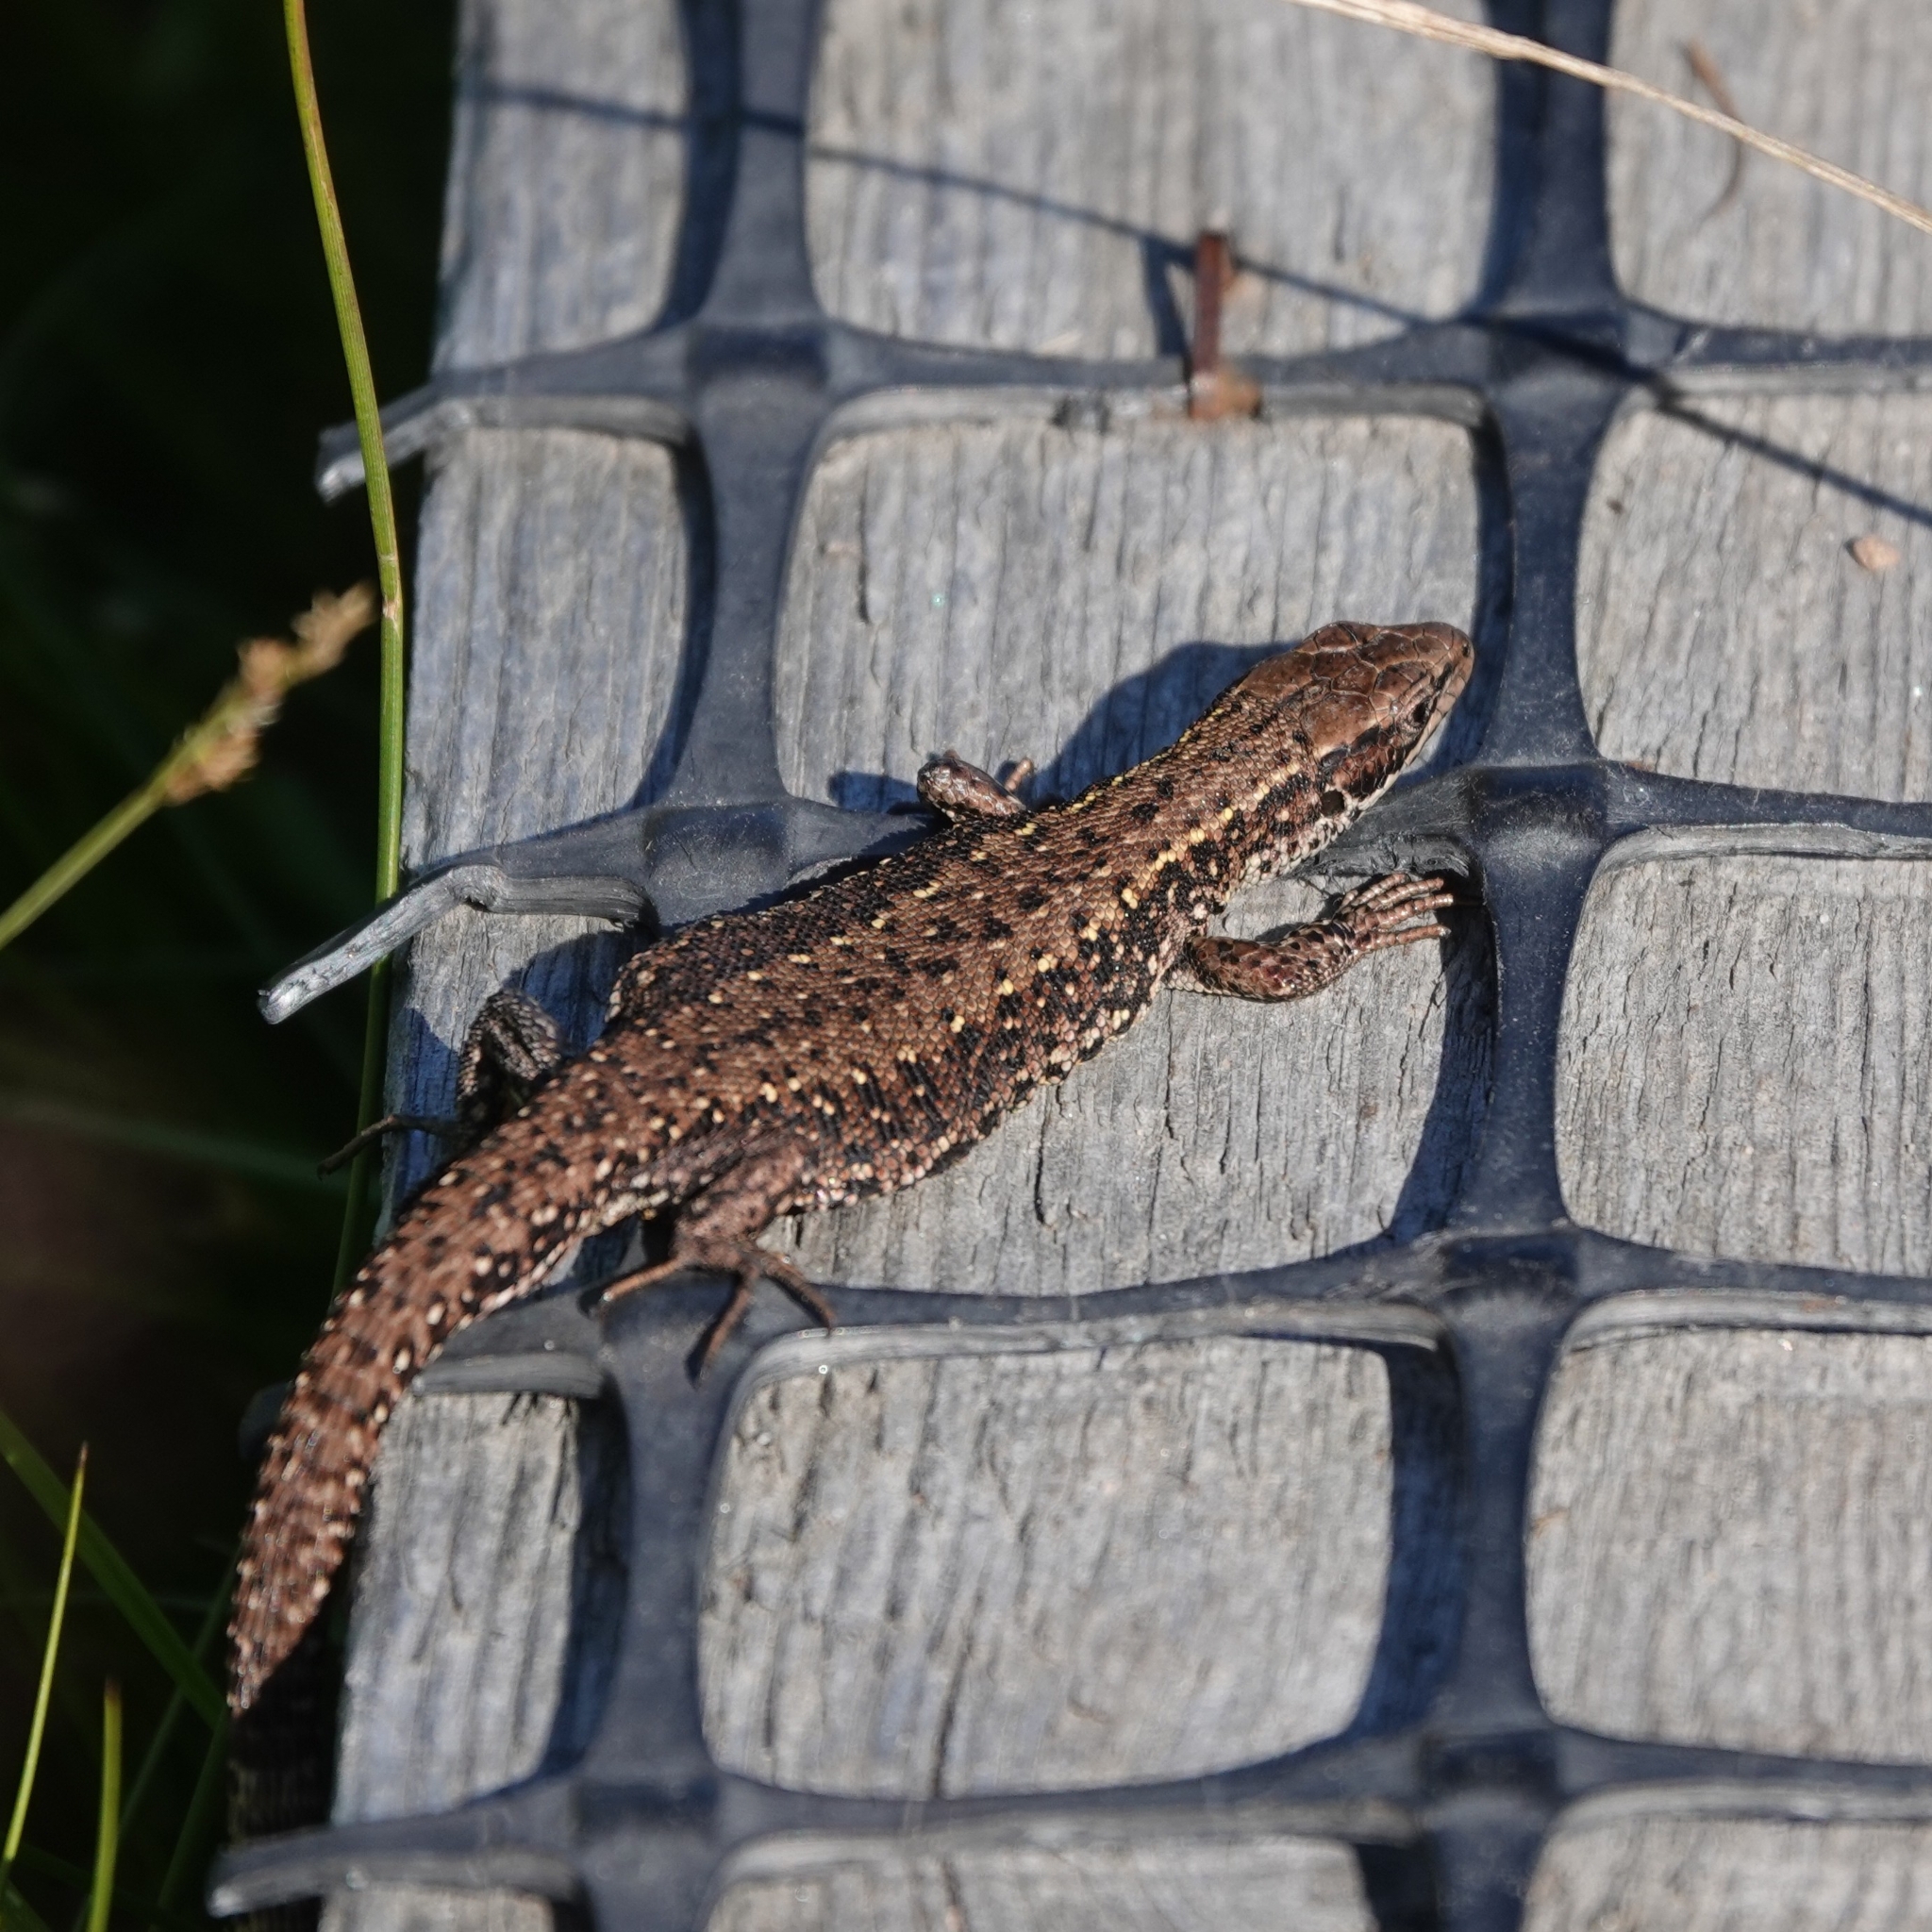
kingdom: Animalia
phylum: Chordata
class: Squamata
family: Lacertidae
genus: Zootoca
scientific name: Zootoca vivipara
